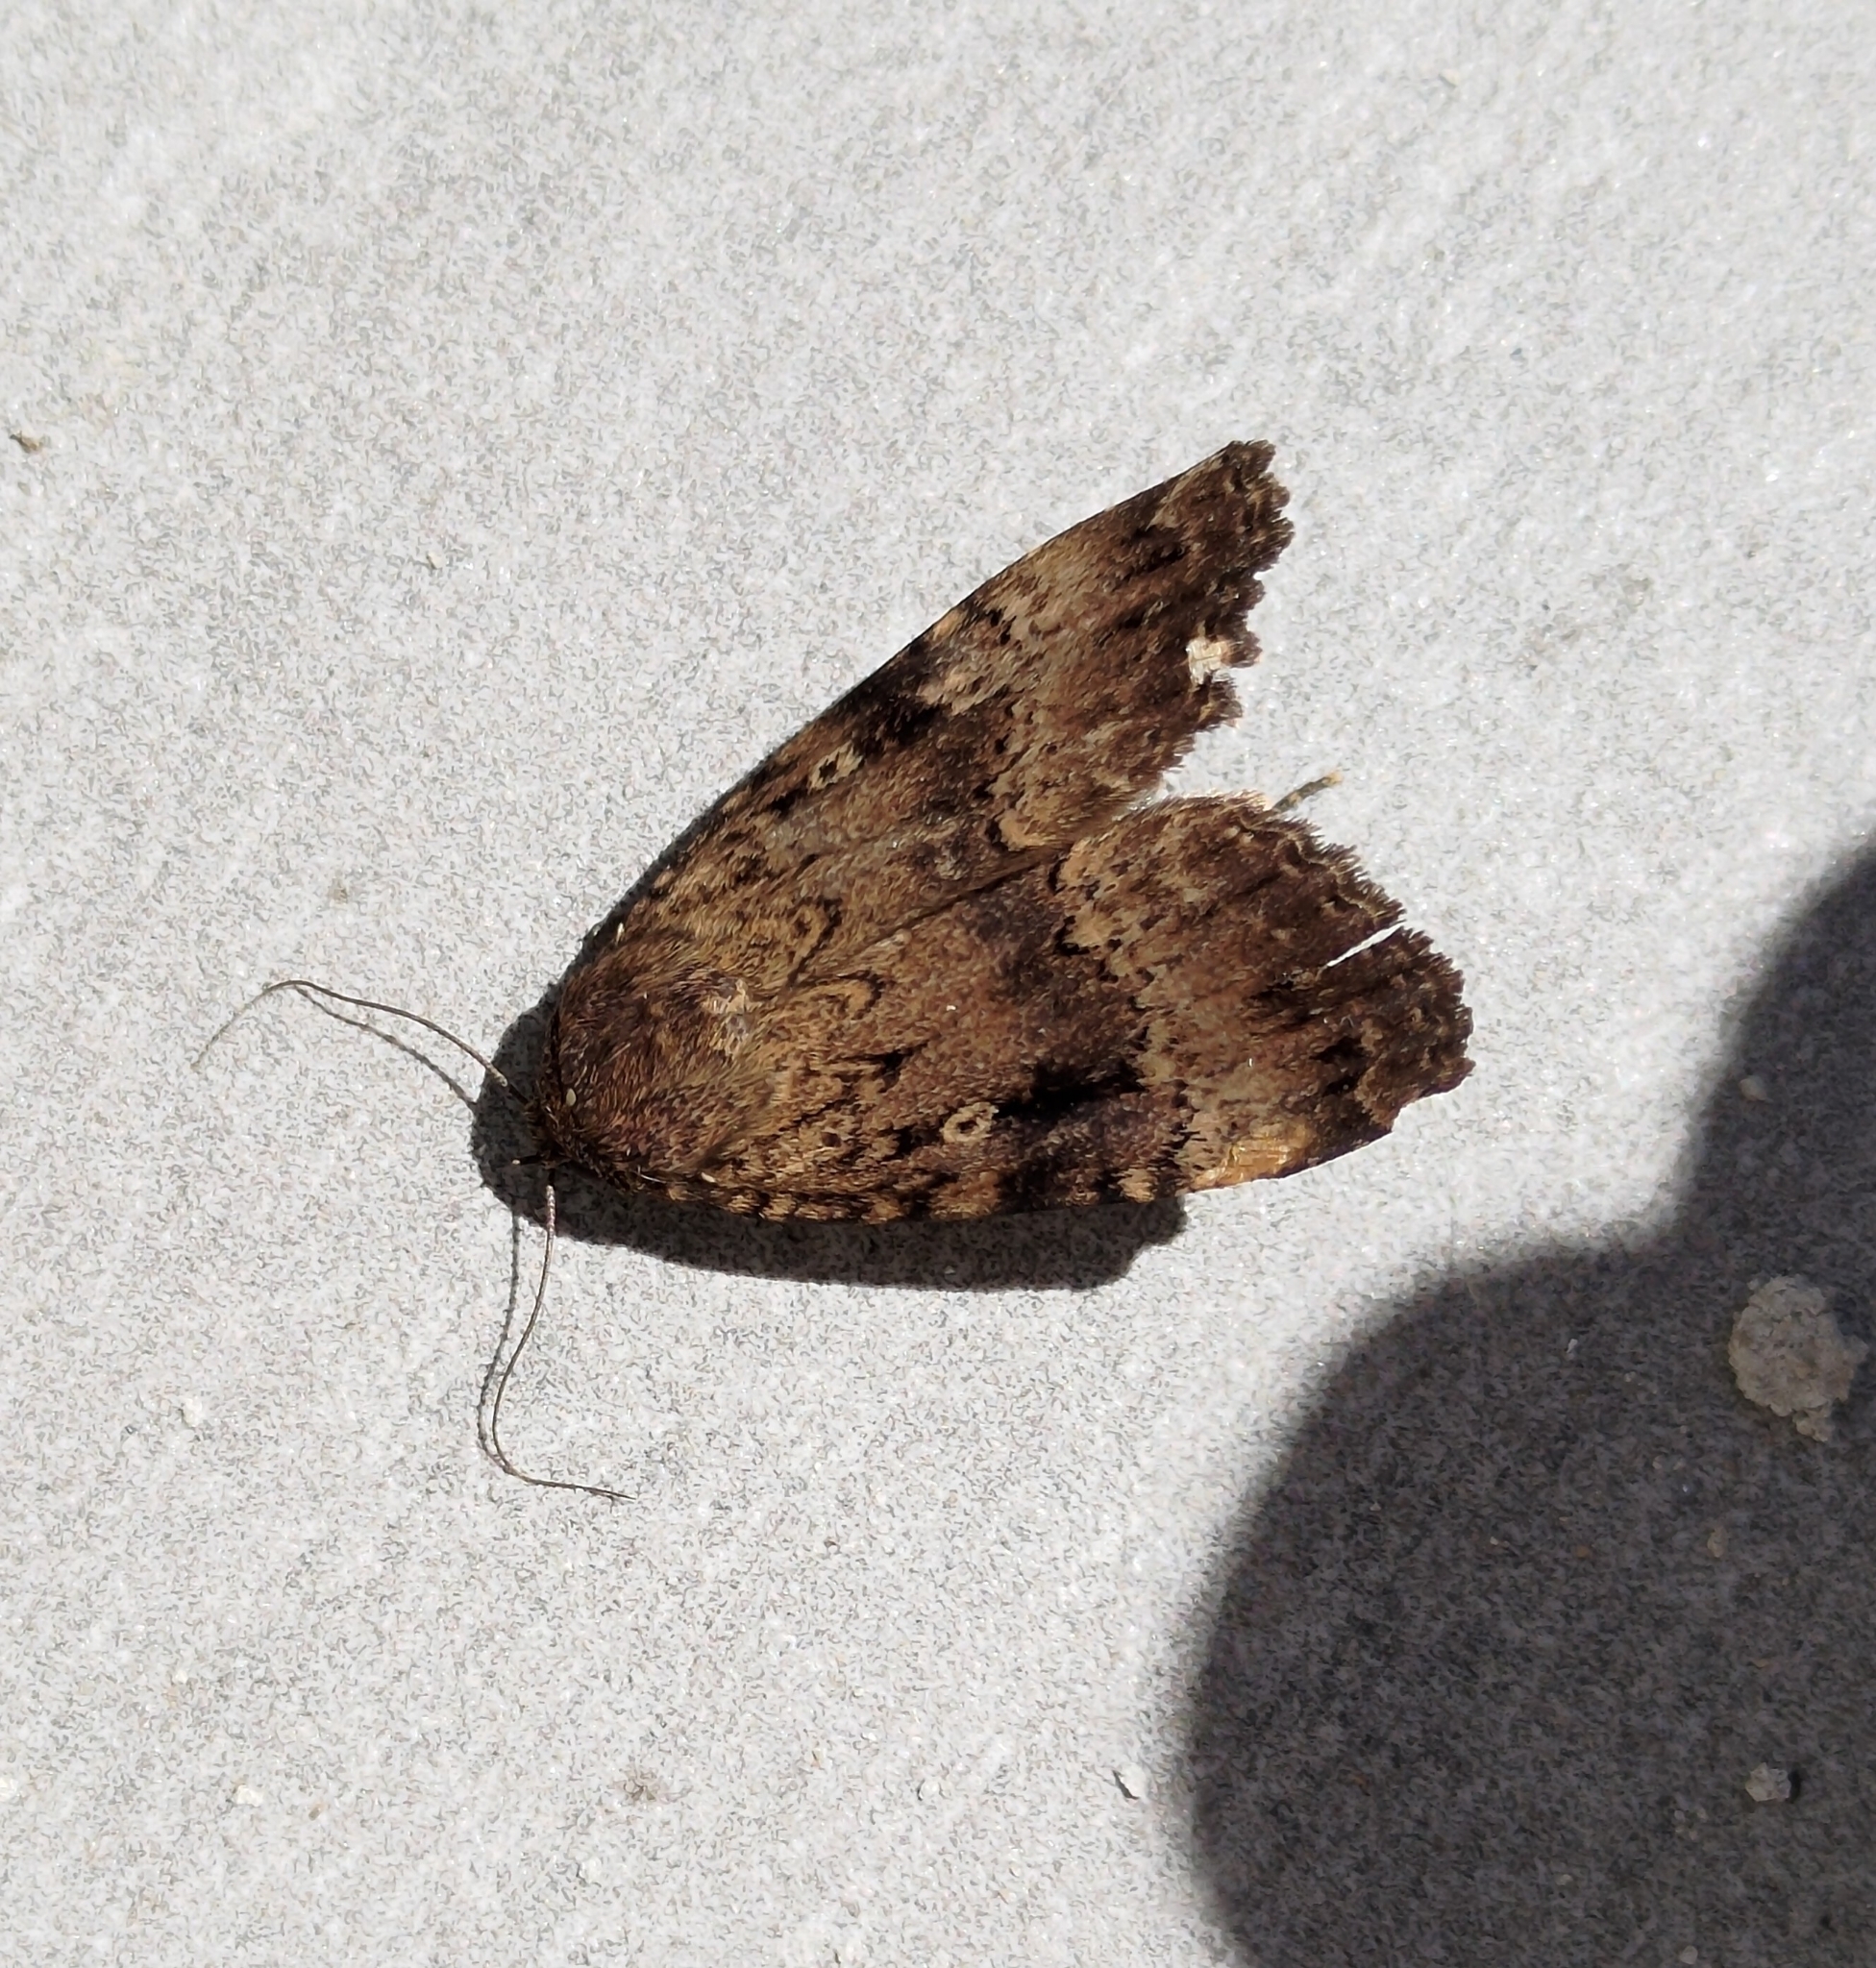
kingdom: Animalia
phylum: Arthropoda
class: Insecta
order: Lepidoptera
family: Noctuidae
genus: Amphipyra
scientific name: Amphipyra pyramidea
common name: Copper underwing
